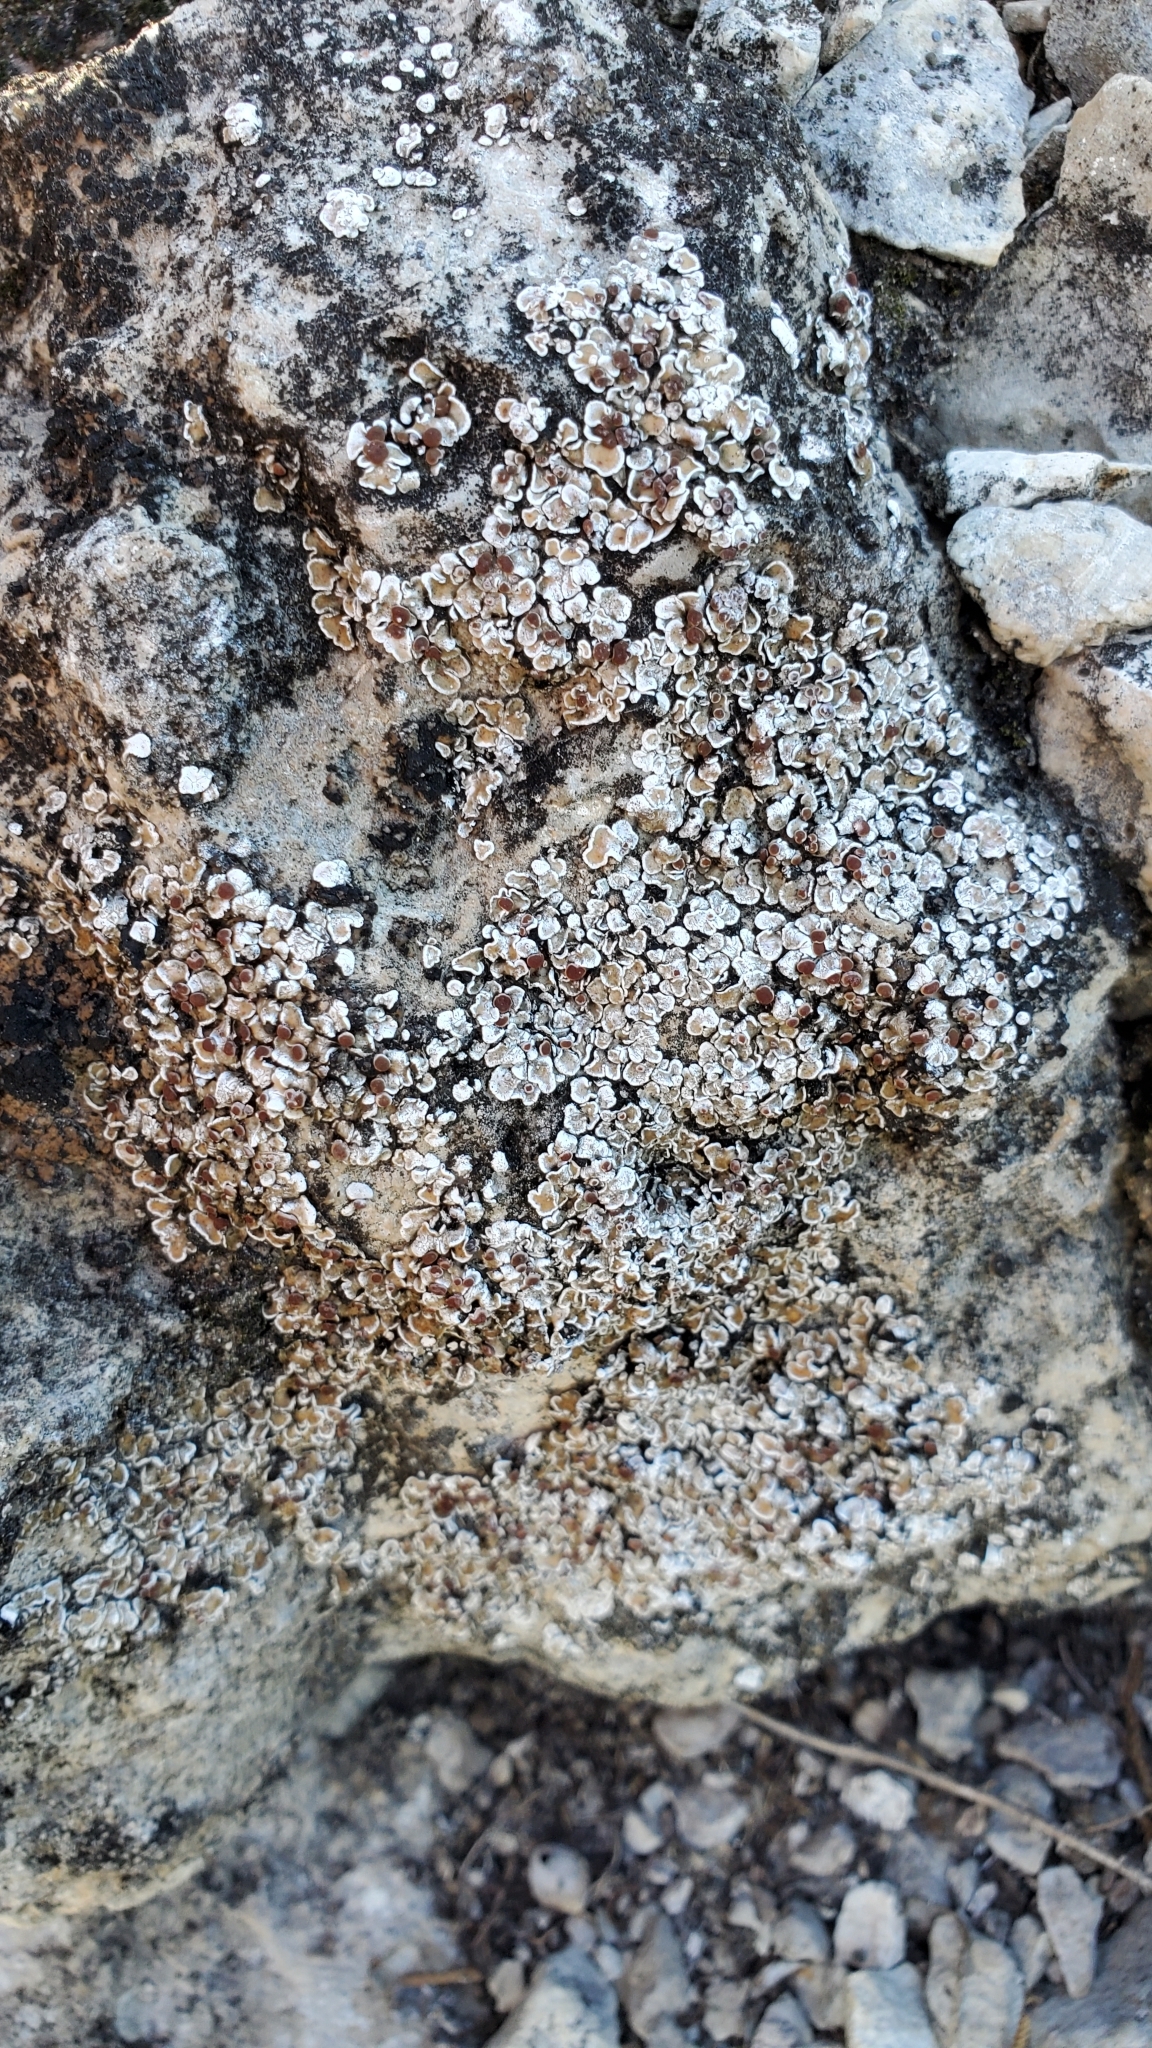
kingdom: Fungi
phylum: Ascomycota
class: Lecanoromycetes
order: Lecanorales
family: Psoraceae
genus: Psora
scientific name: Psora pseudorussellii
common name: Bordered scale lichen
